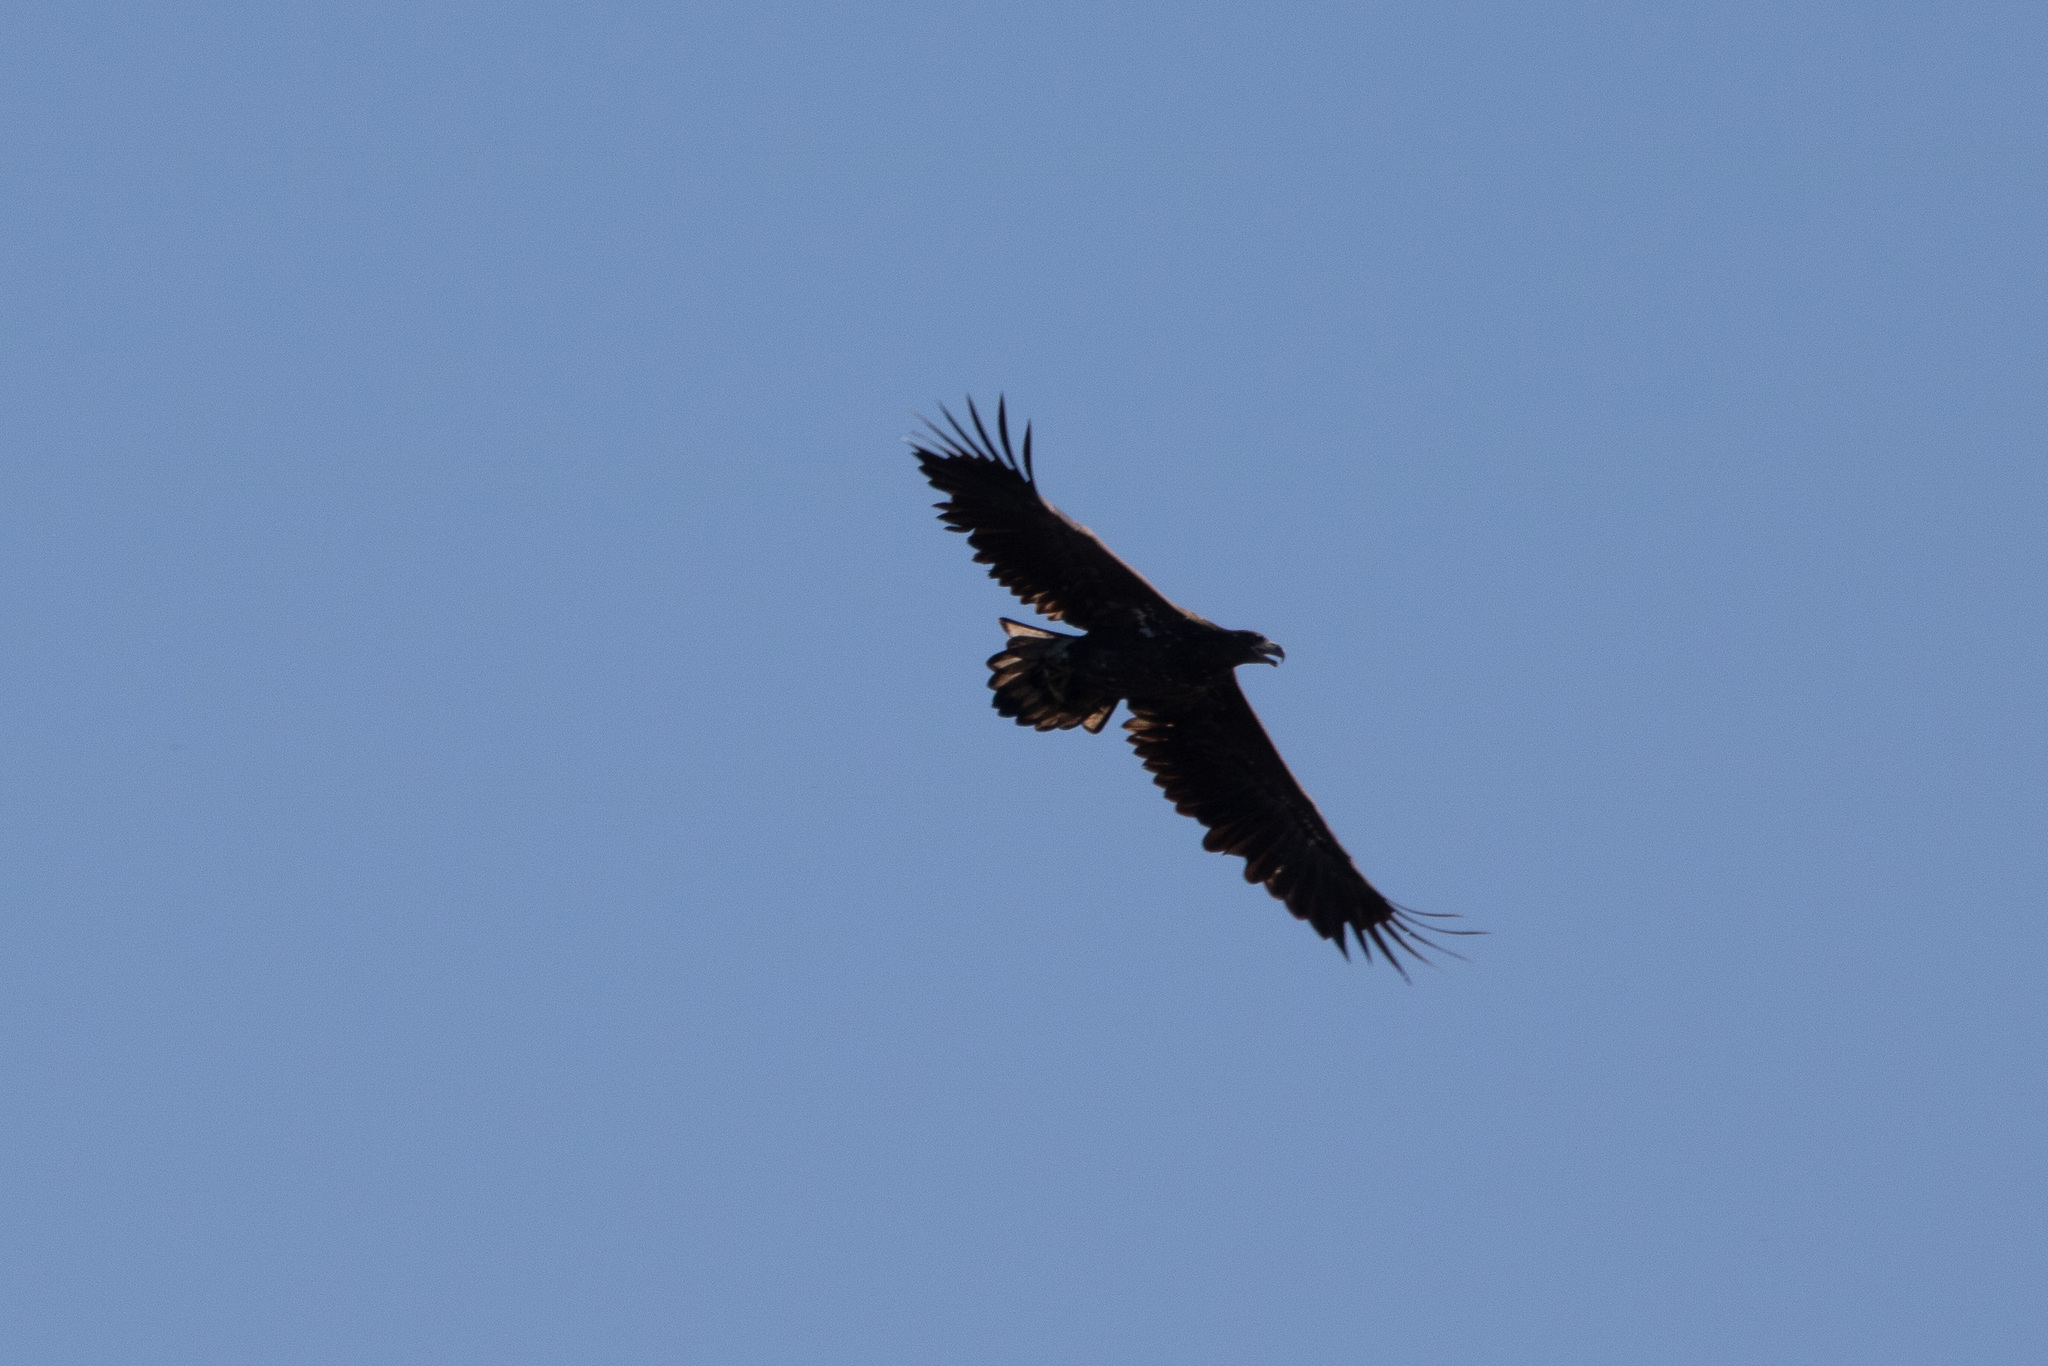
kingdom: Animalia
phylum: Chordata
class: Aves
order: Accipitriformes
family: Accipitridae
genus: Haliaeetus
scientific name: Haliaeetus albicilla
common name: White-tailed eagle
